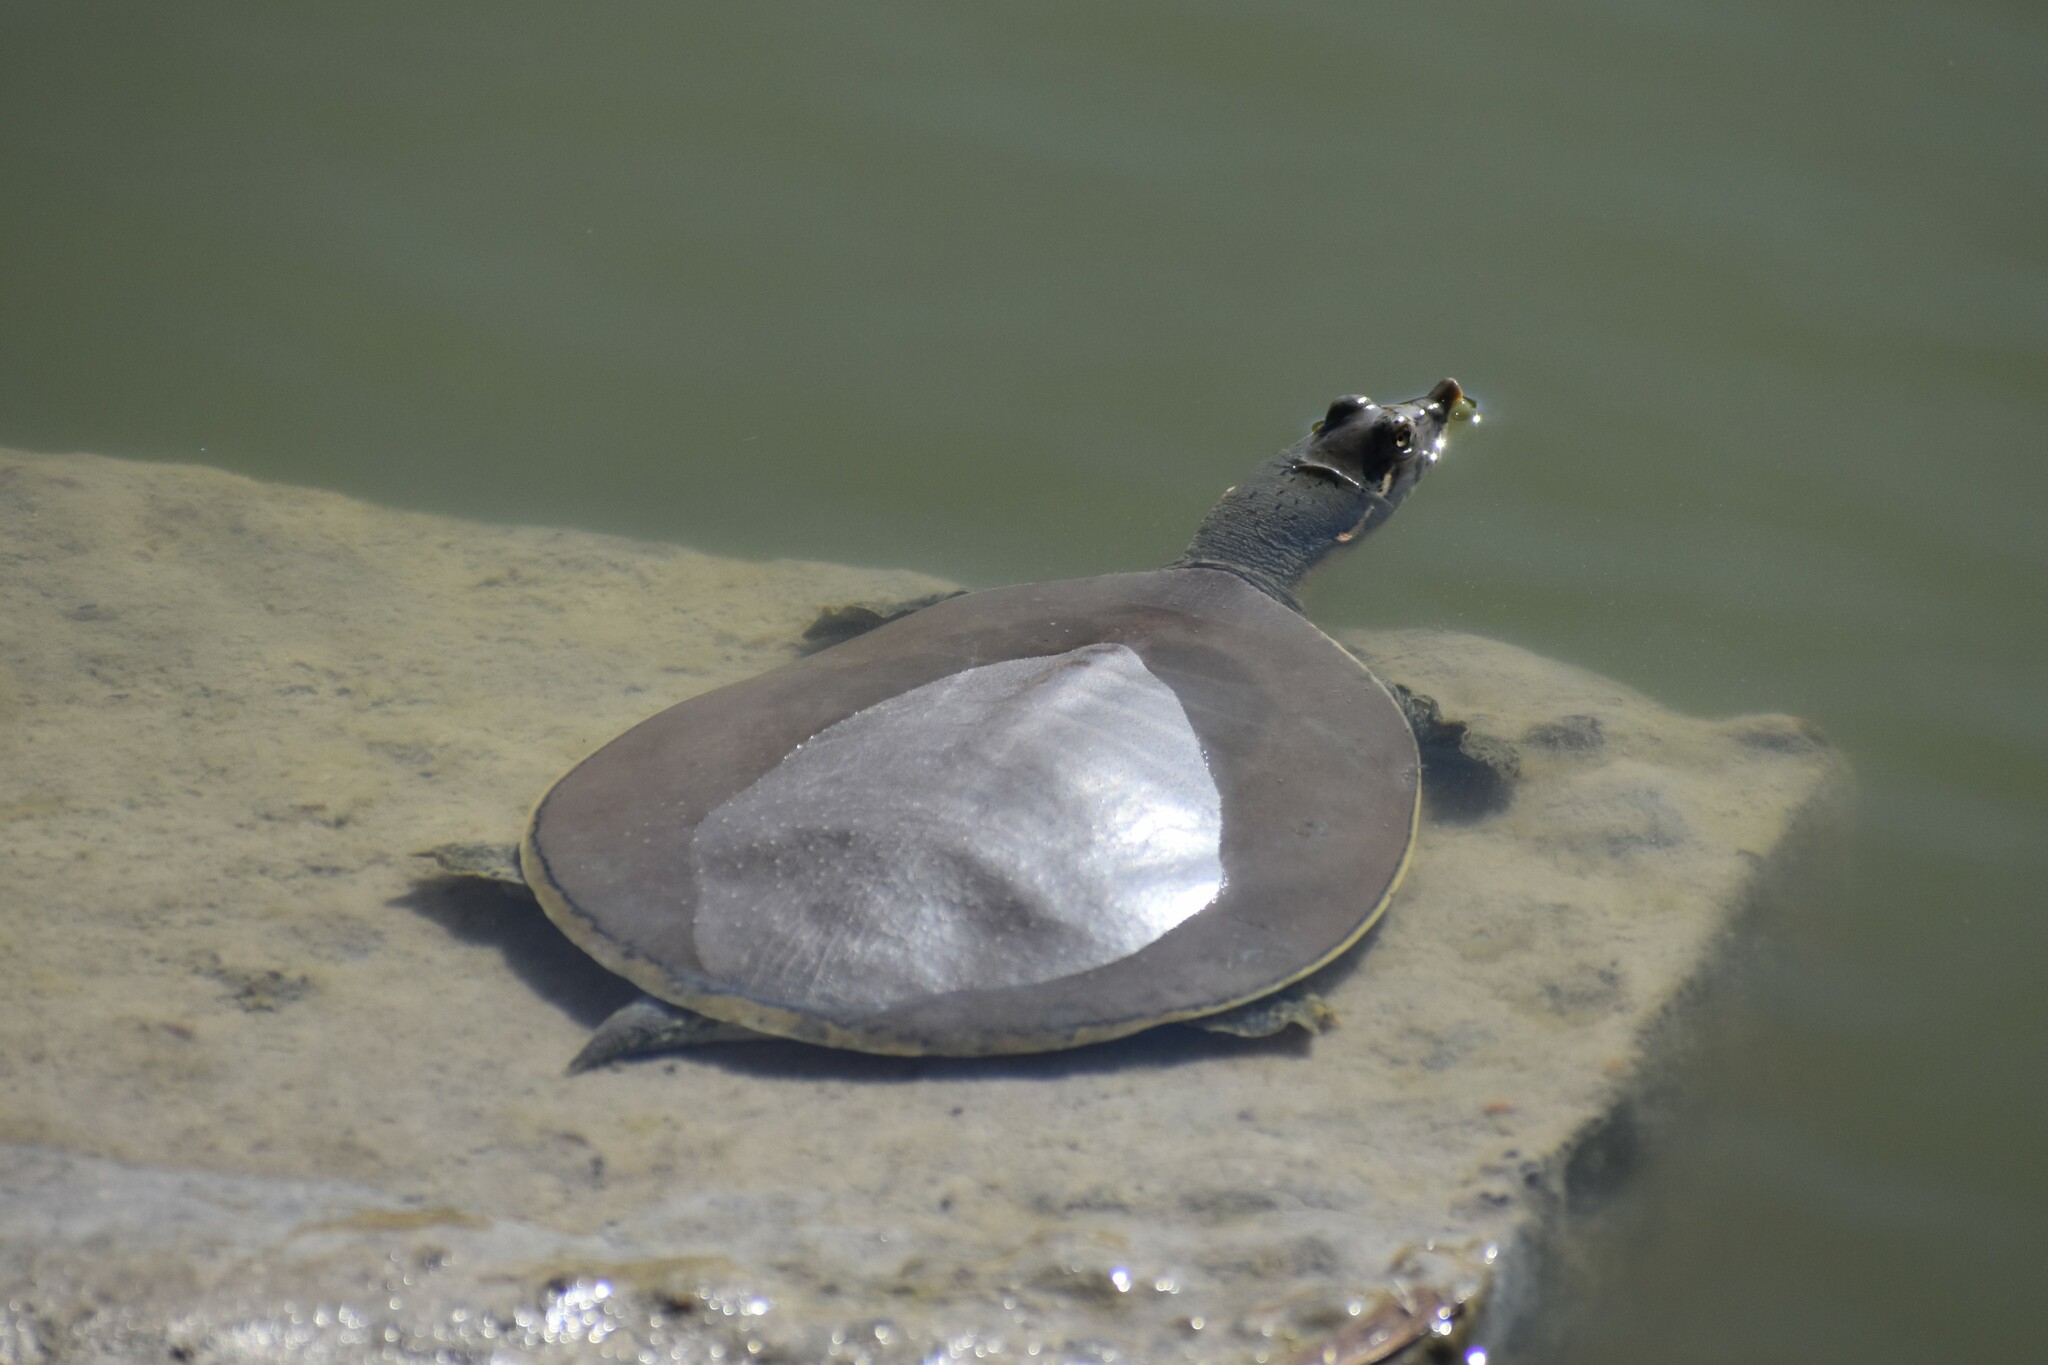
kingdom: Animalia
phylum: Chordata
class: Testudines
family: Trionychidae
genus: Apalone
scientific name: Apalone spinifera
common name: Spiny softshell turtle
